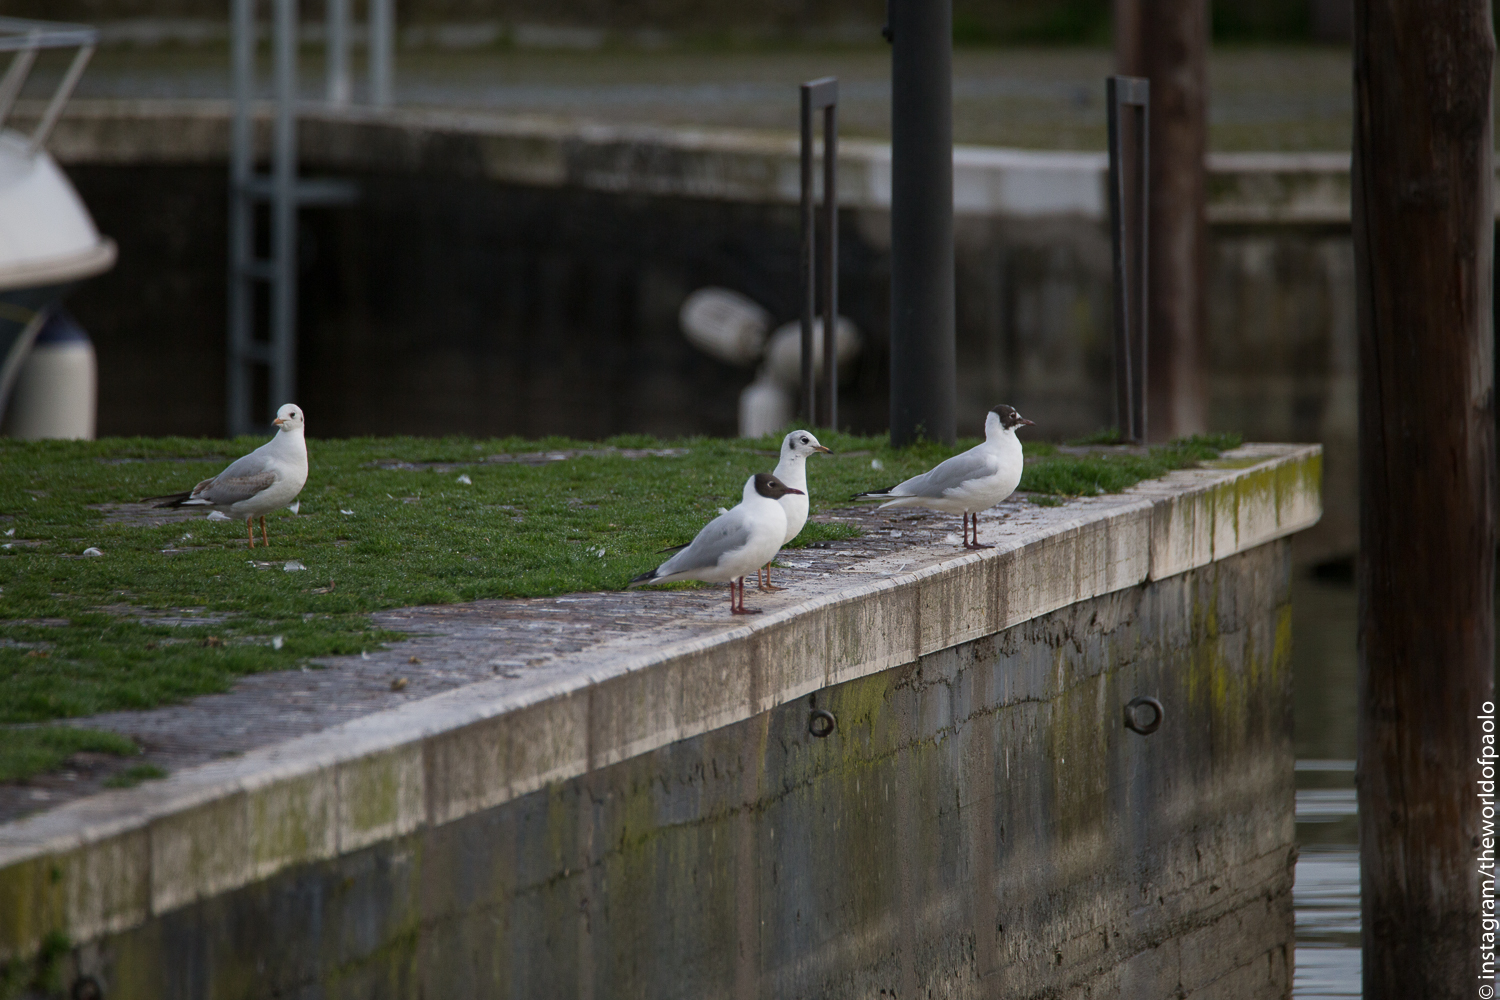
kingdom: Animalia
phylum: Chordata
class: Aves
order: Charadriiformes
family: Laridae
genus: Chroicocephalus
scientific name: Chroicocephalus ridibundus
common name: Black-headed gull
